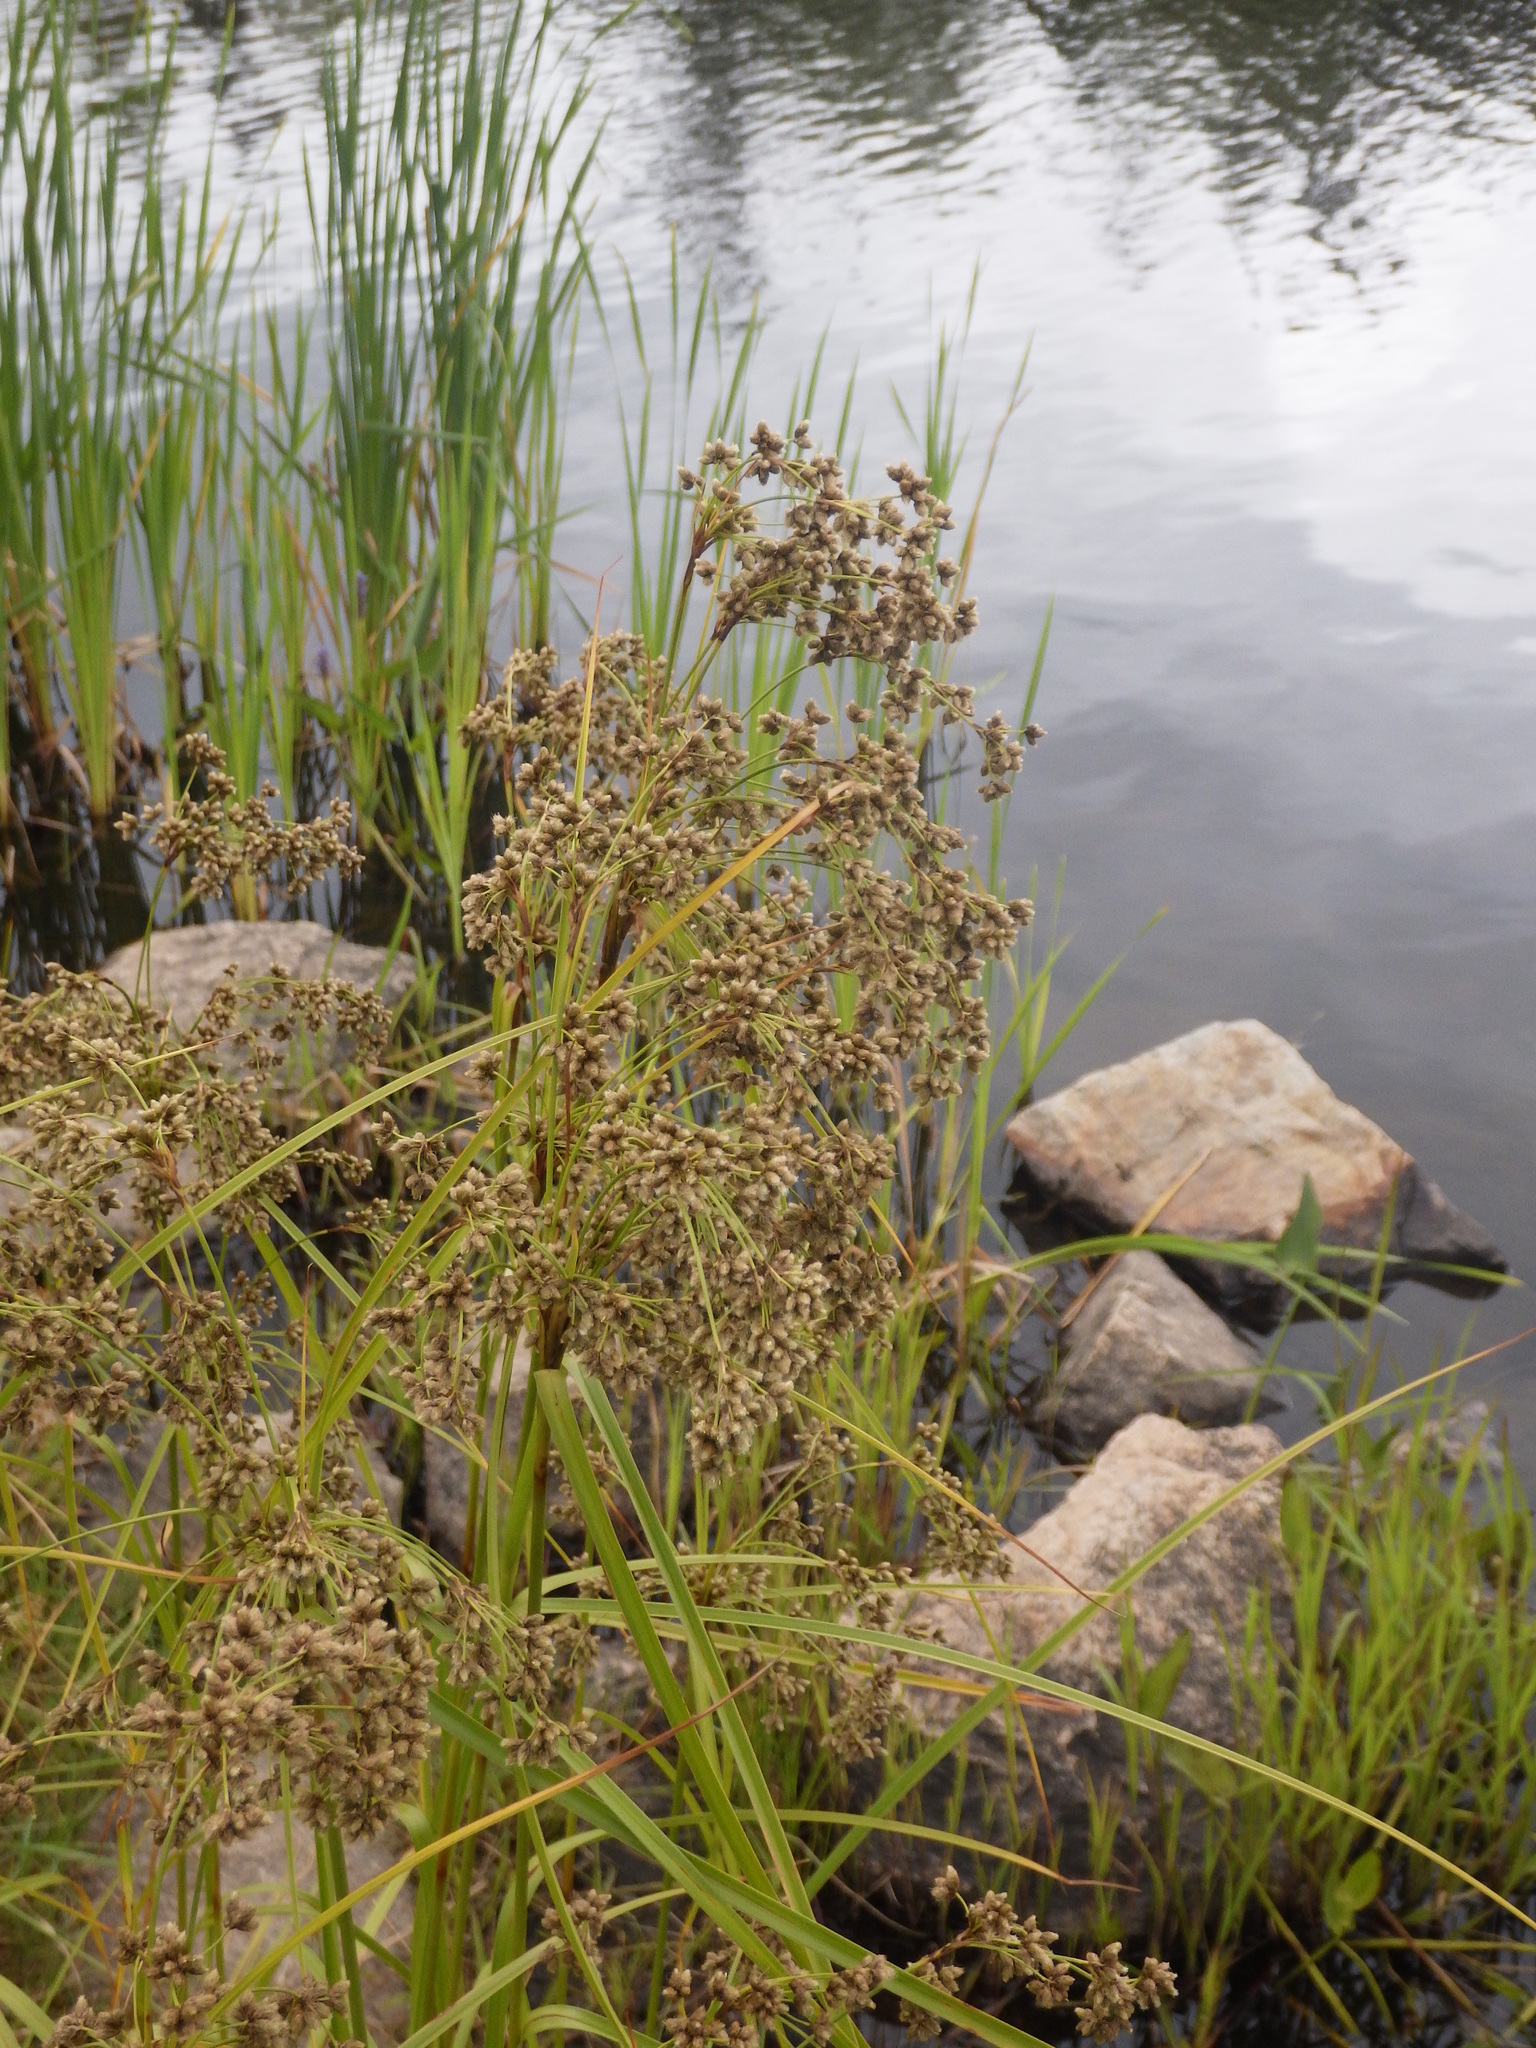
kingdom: Plantae
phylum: Tracheophyta
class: Liliopsida
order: Poales
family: Cyperaceae
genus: Scirpus
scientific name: Scirpus cyperinus
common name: Black-sheathed bulrush
